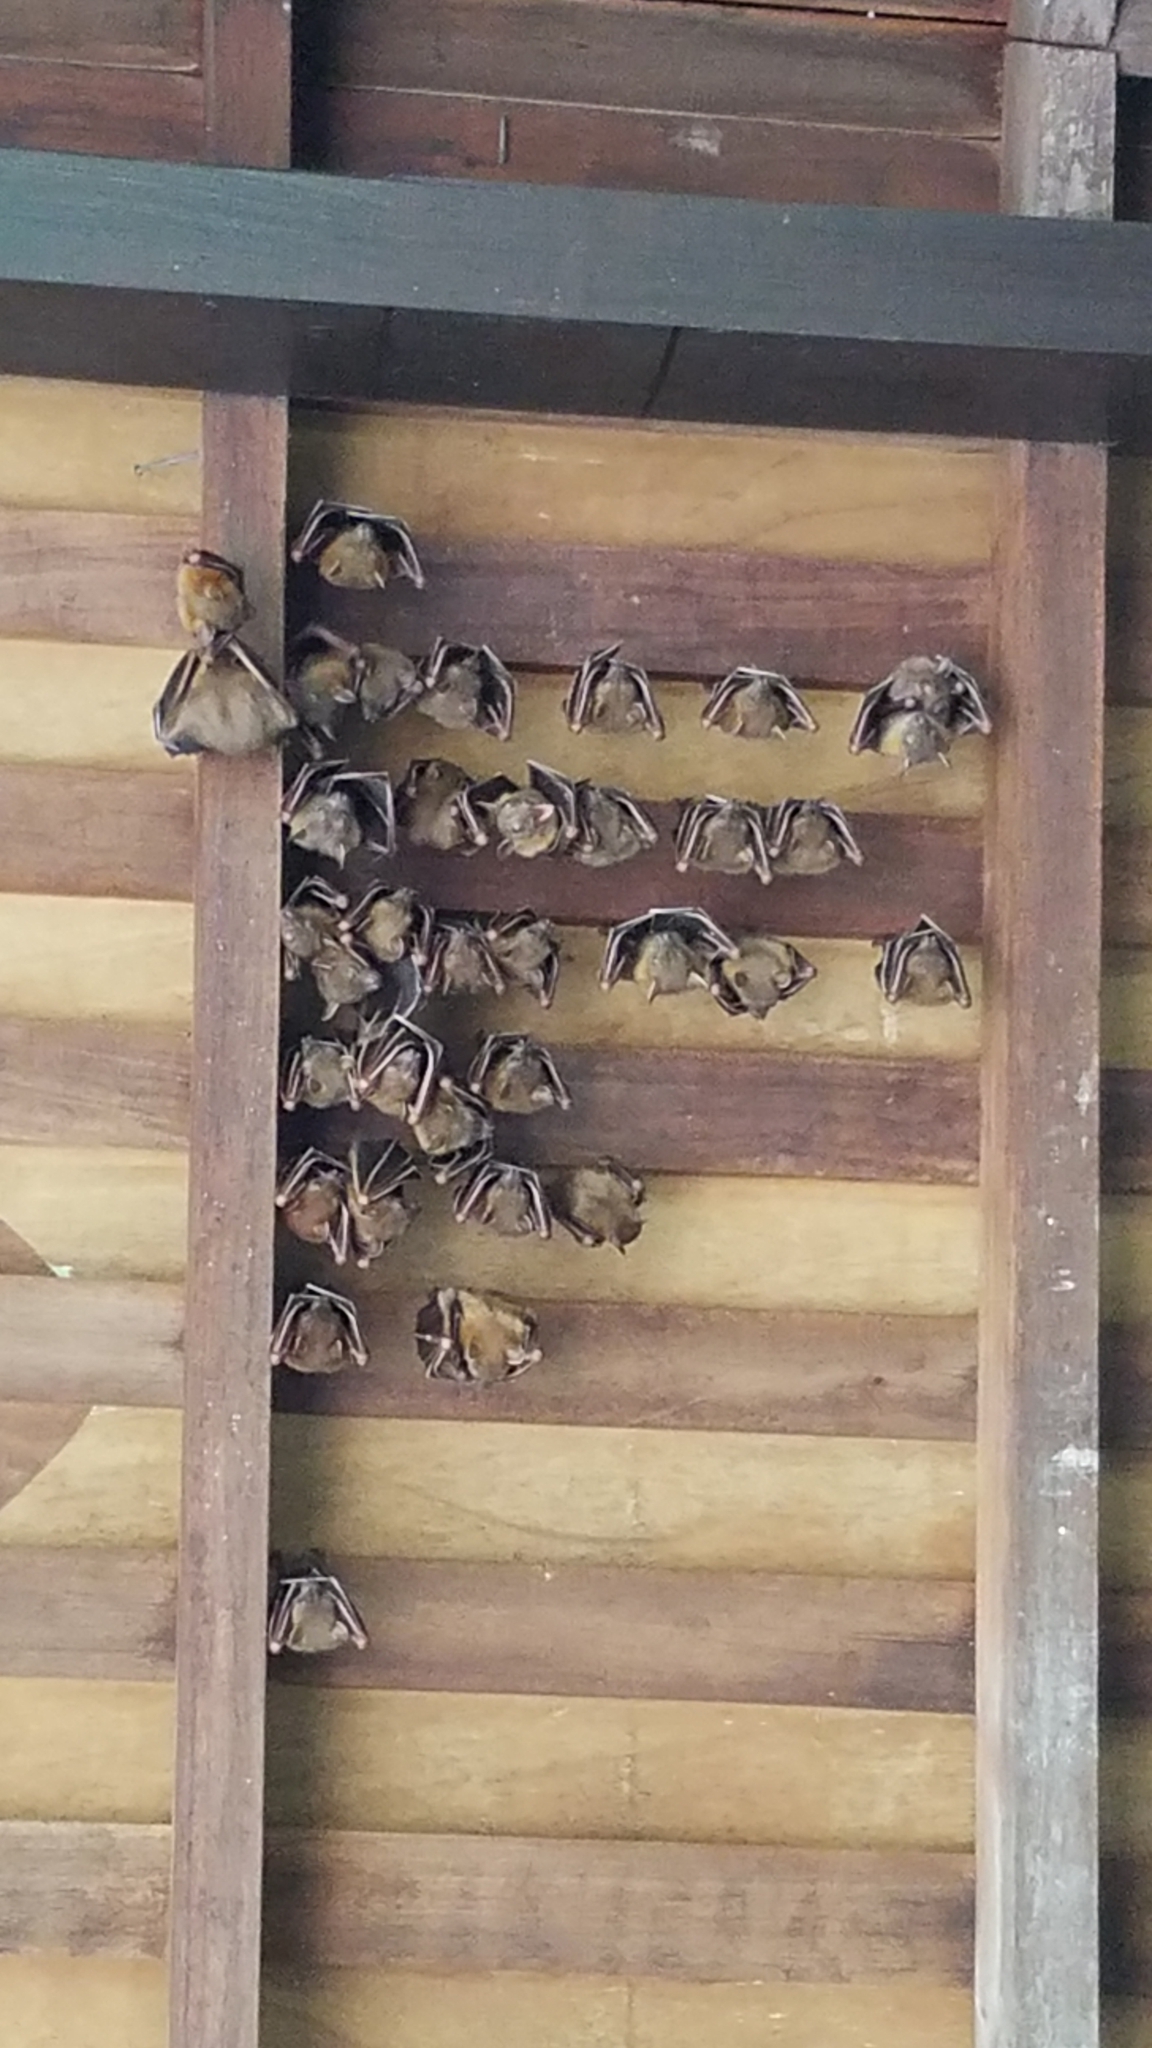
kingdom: Animalia
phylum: Chordata
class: Mammalia
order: Chiroptera
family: Pteropodidae
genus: Cynopterus
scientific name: Cynopterus brachyotis
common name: Lesser short-nosed fruit bat
